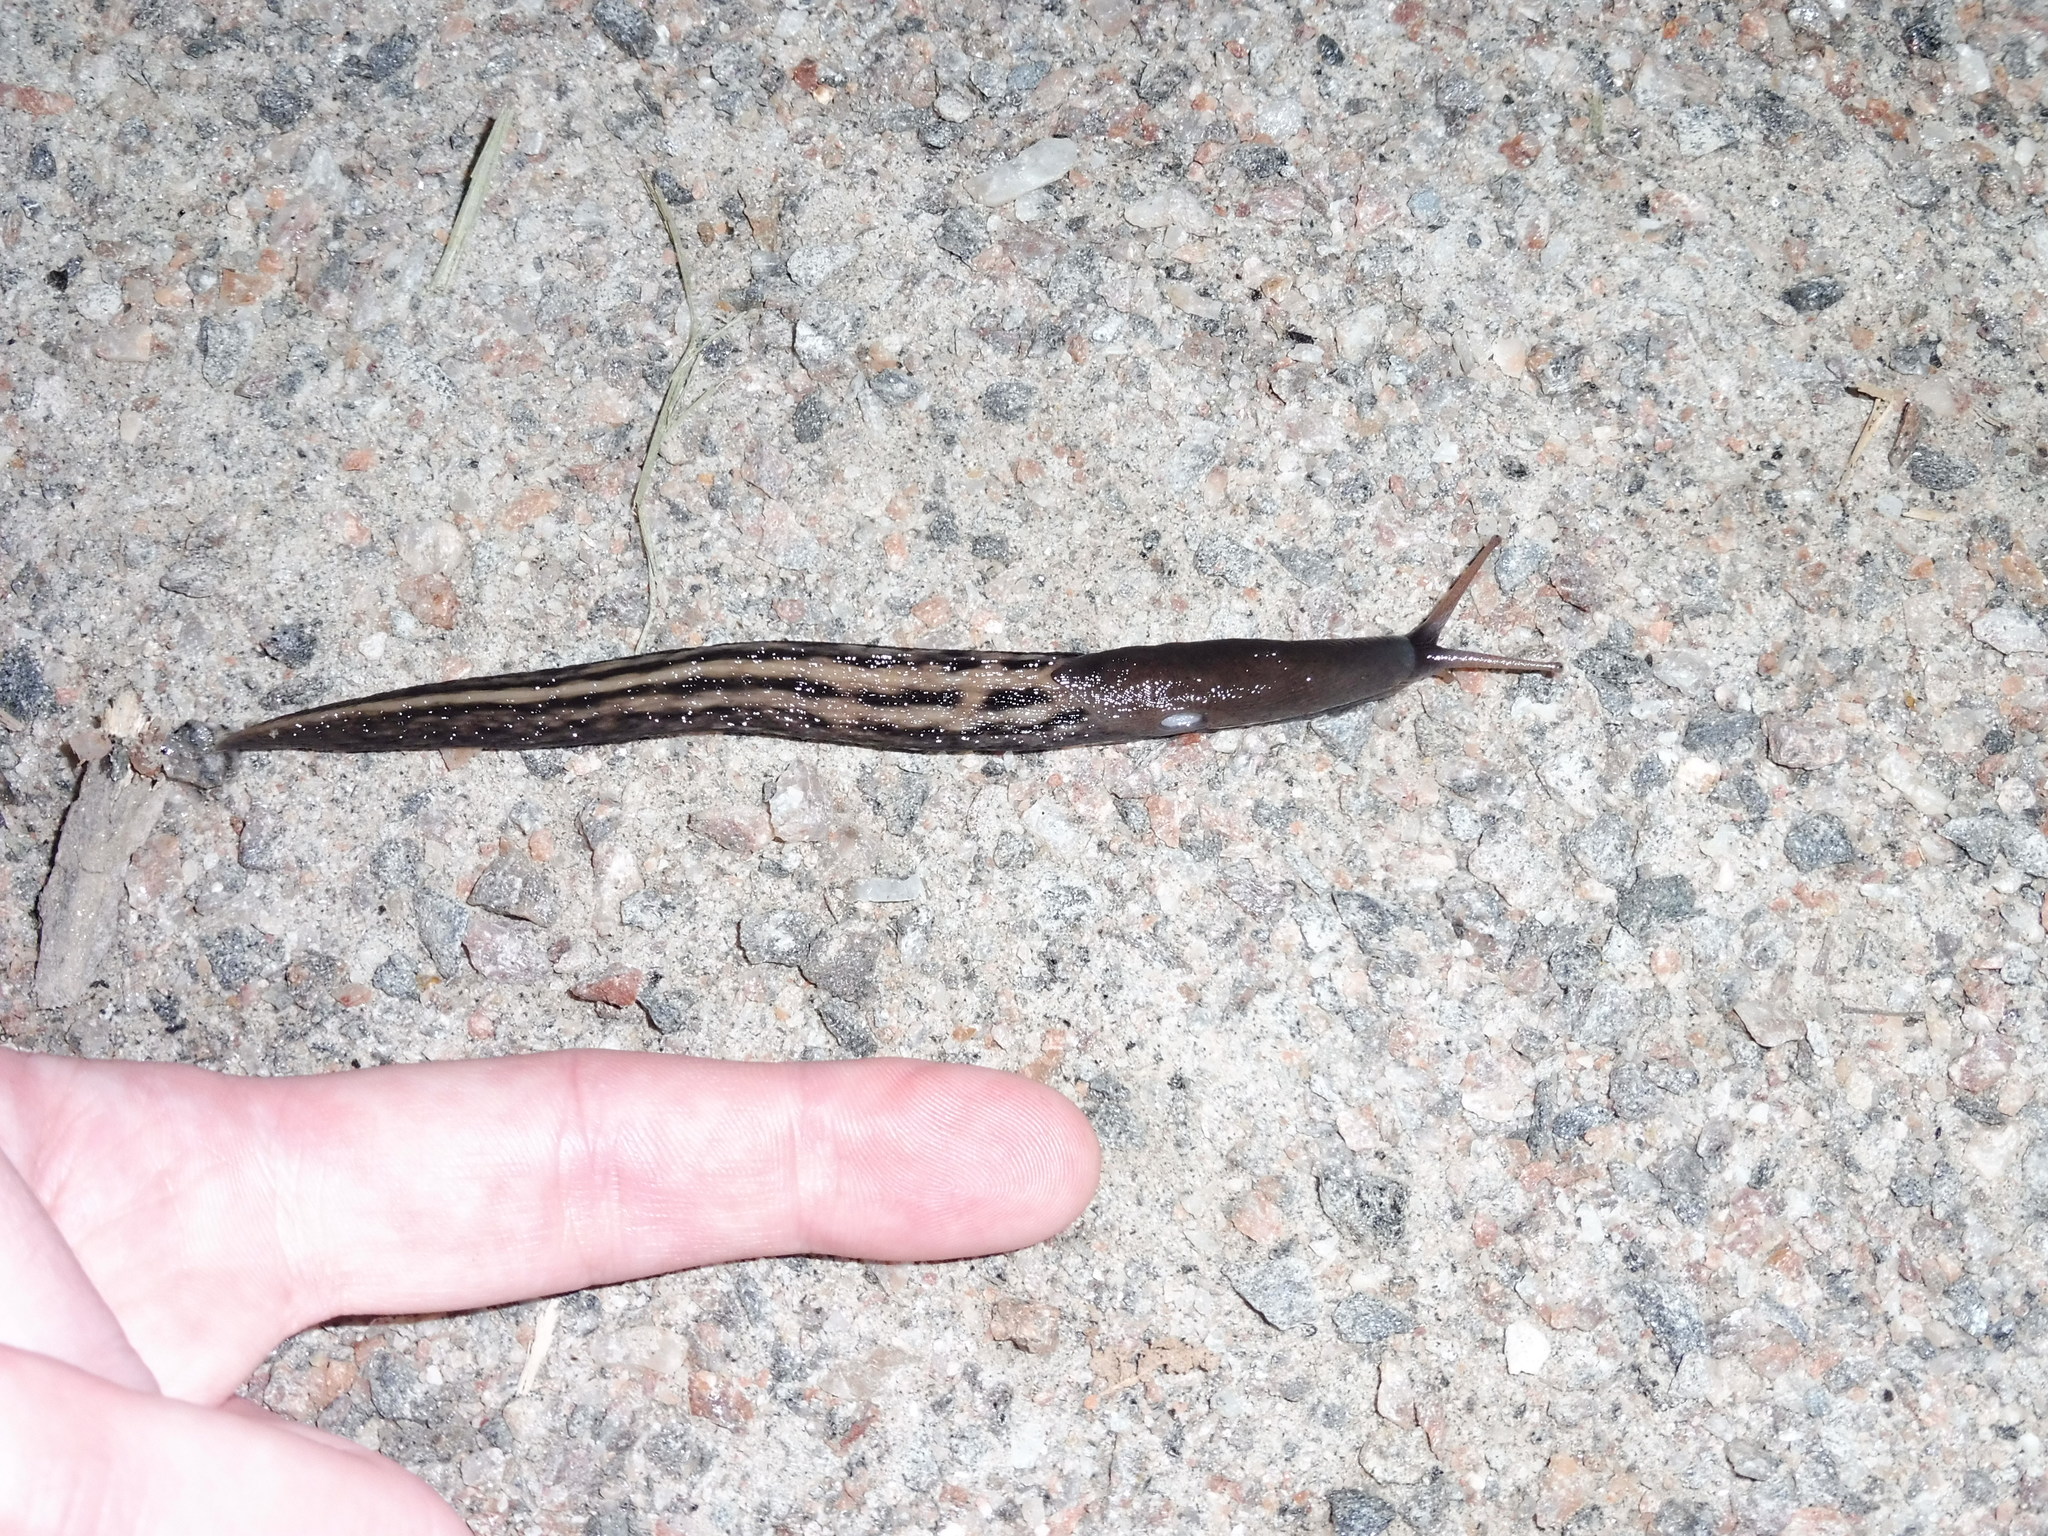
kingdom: Animalia
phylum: Mollusca
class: Gastropoda
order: Stylommatophora
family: Limacidae
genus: Limax
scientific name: Limax cinereoniger
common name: Ash-black slug
